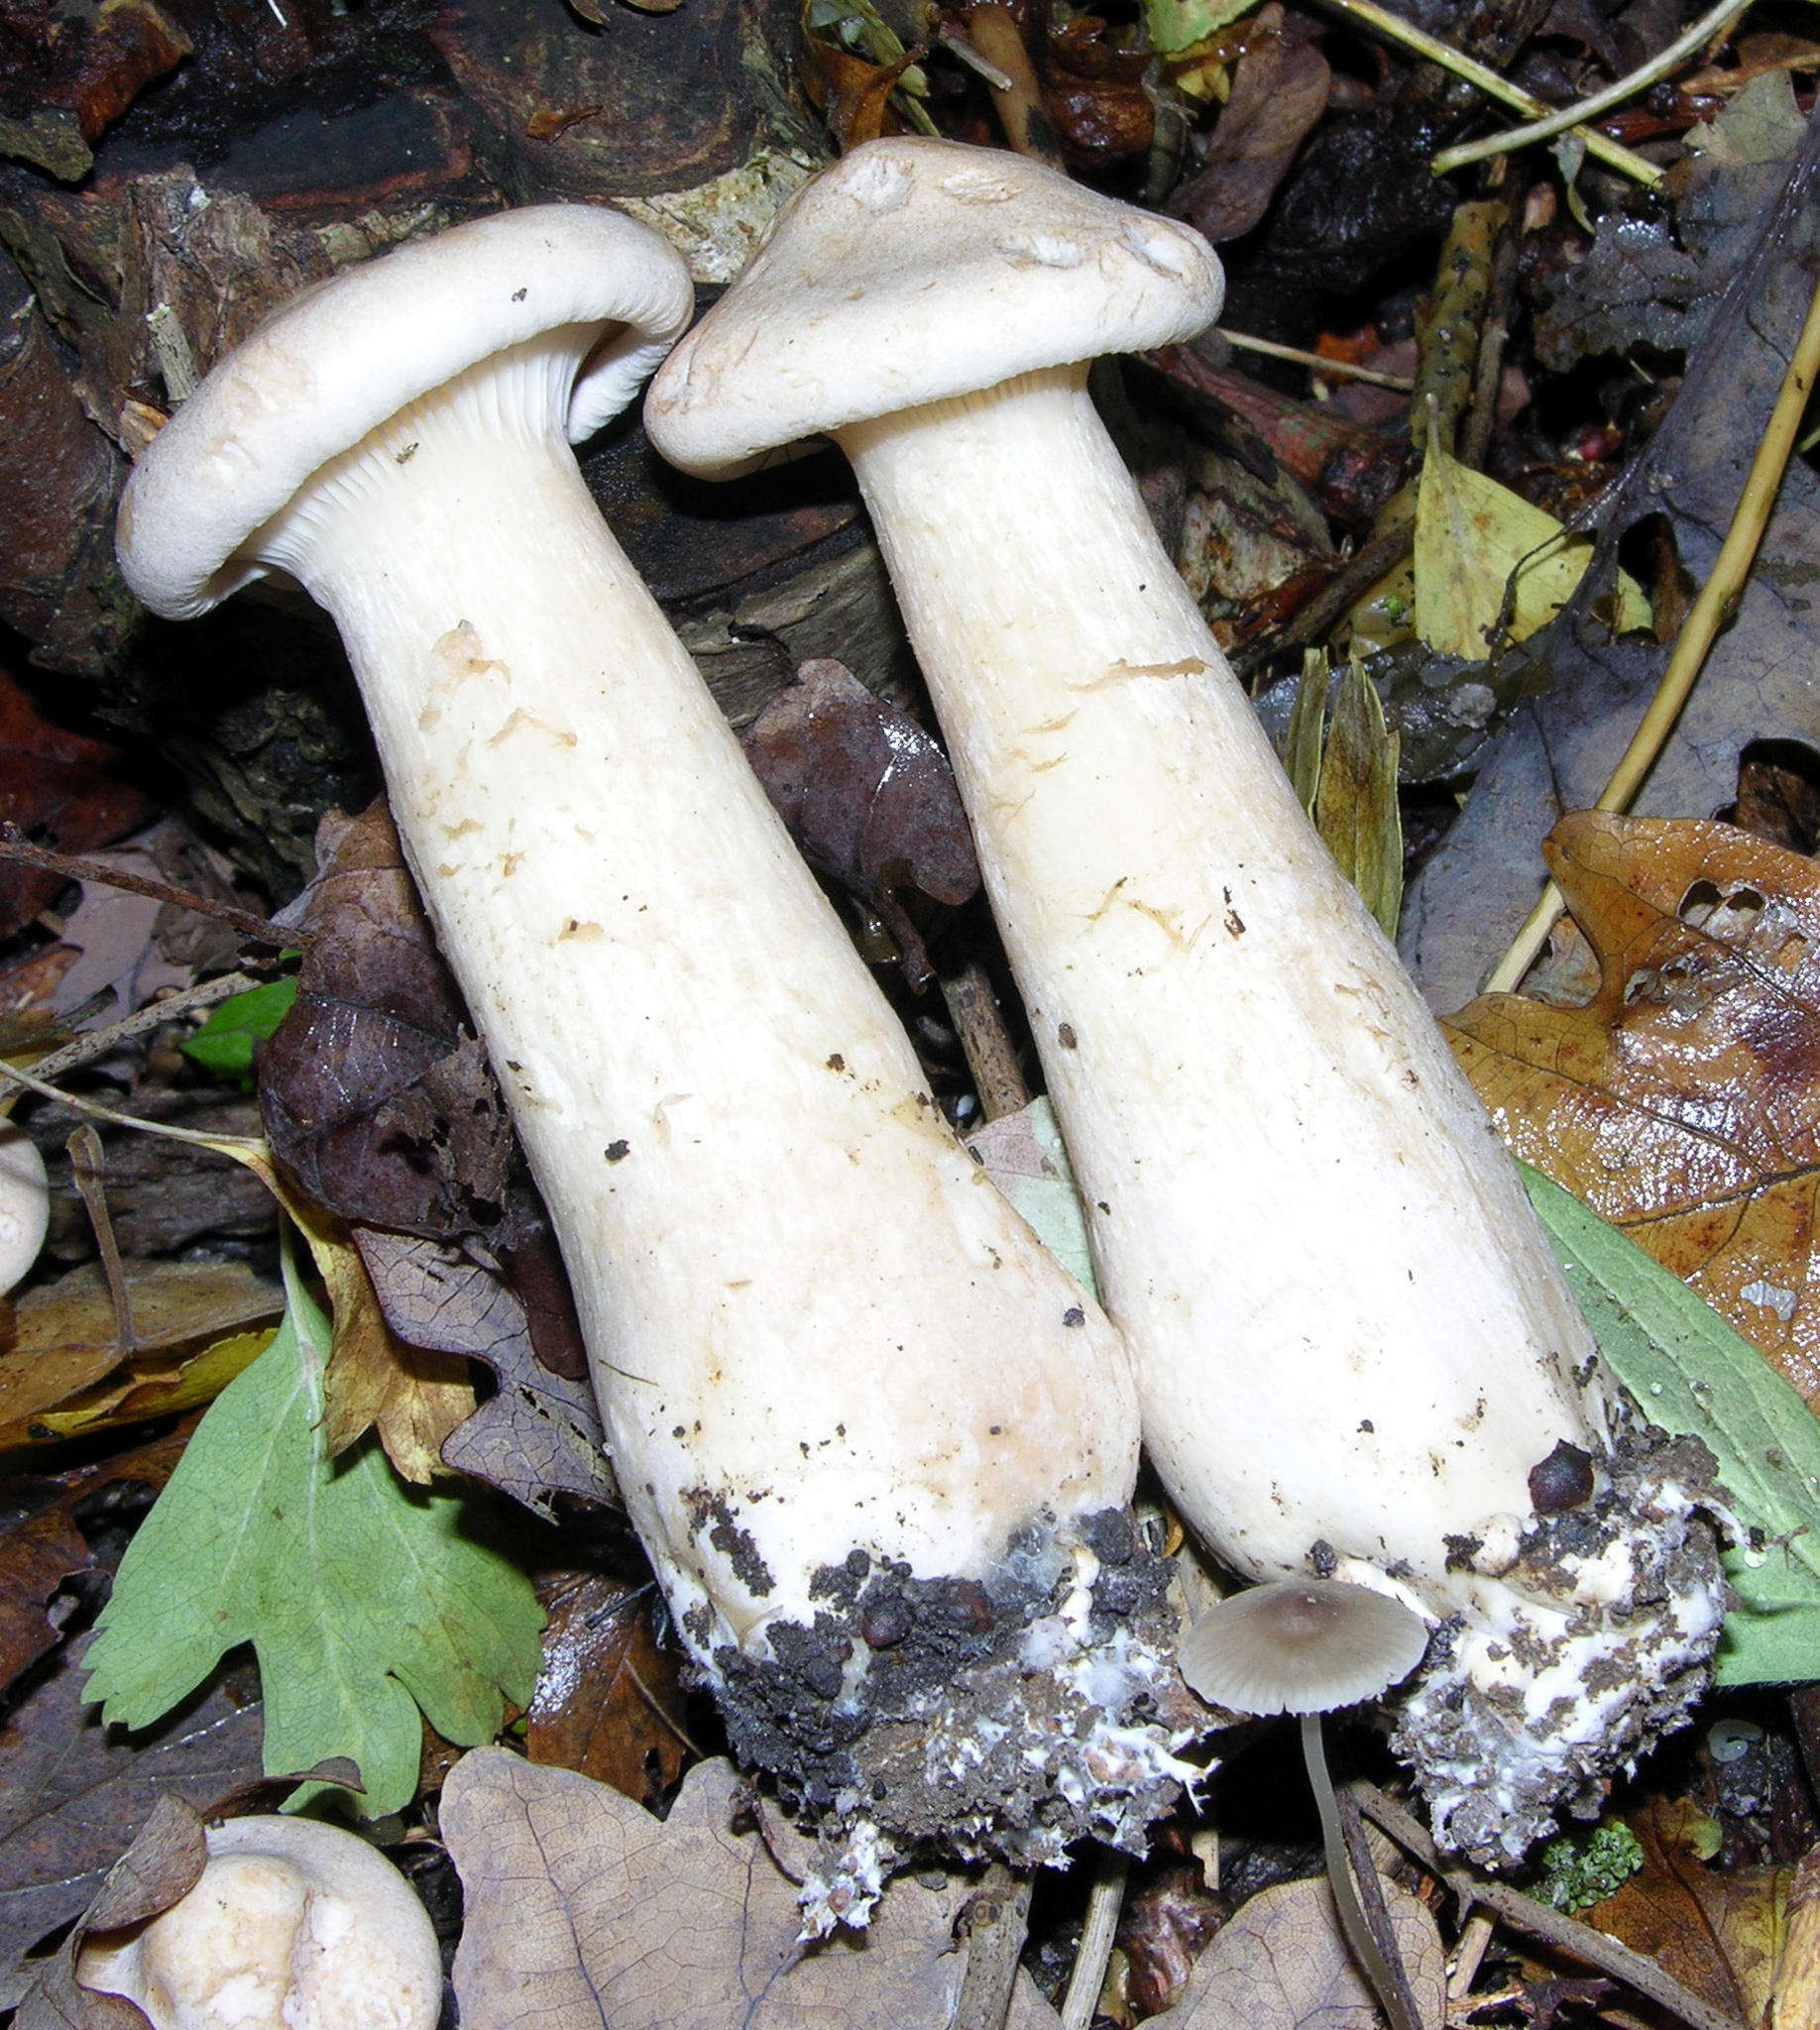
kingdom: Fungi
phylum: Basidiomycota
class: Agaricomycetes
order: Agaricales
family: Tricholomataceae
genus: Infundibulicybe
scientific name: Infundibulicybe geotropa
